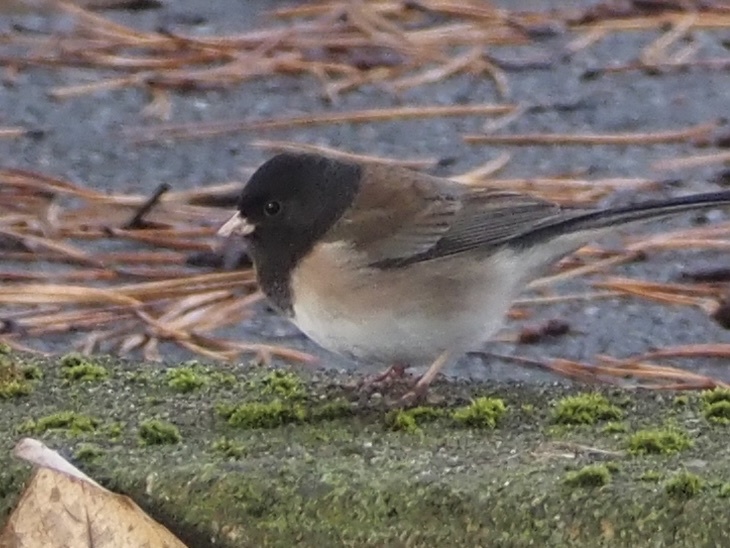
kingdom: Animalia
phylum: Chordata
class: Aves
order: Passeriformes
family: Passerellidae
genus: Junco
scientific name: Junco hyemalis
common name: Dark-eyed junco
